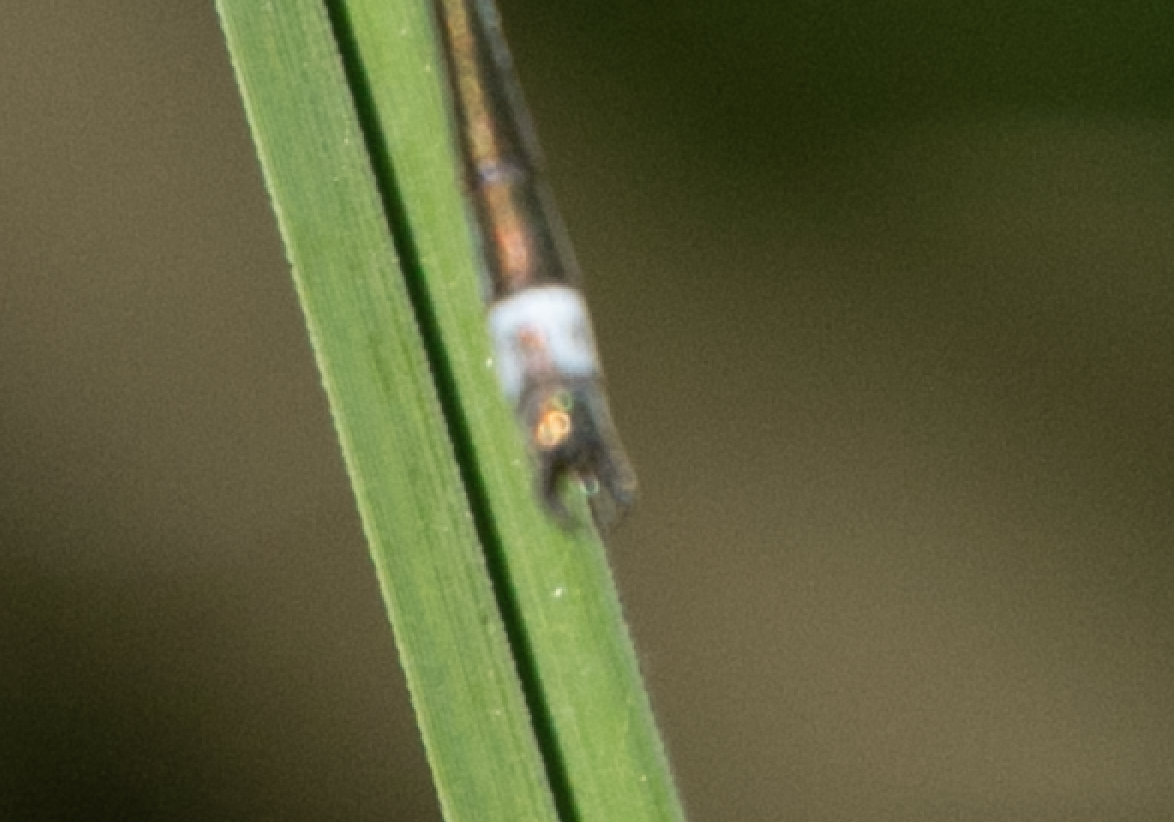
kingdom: Animalia
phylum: Arthropoda
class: Insecta
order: Odonata
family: Lestidae
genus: Lestes
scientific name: Lestes sponsa
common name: Common spreadwing
